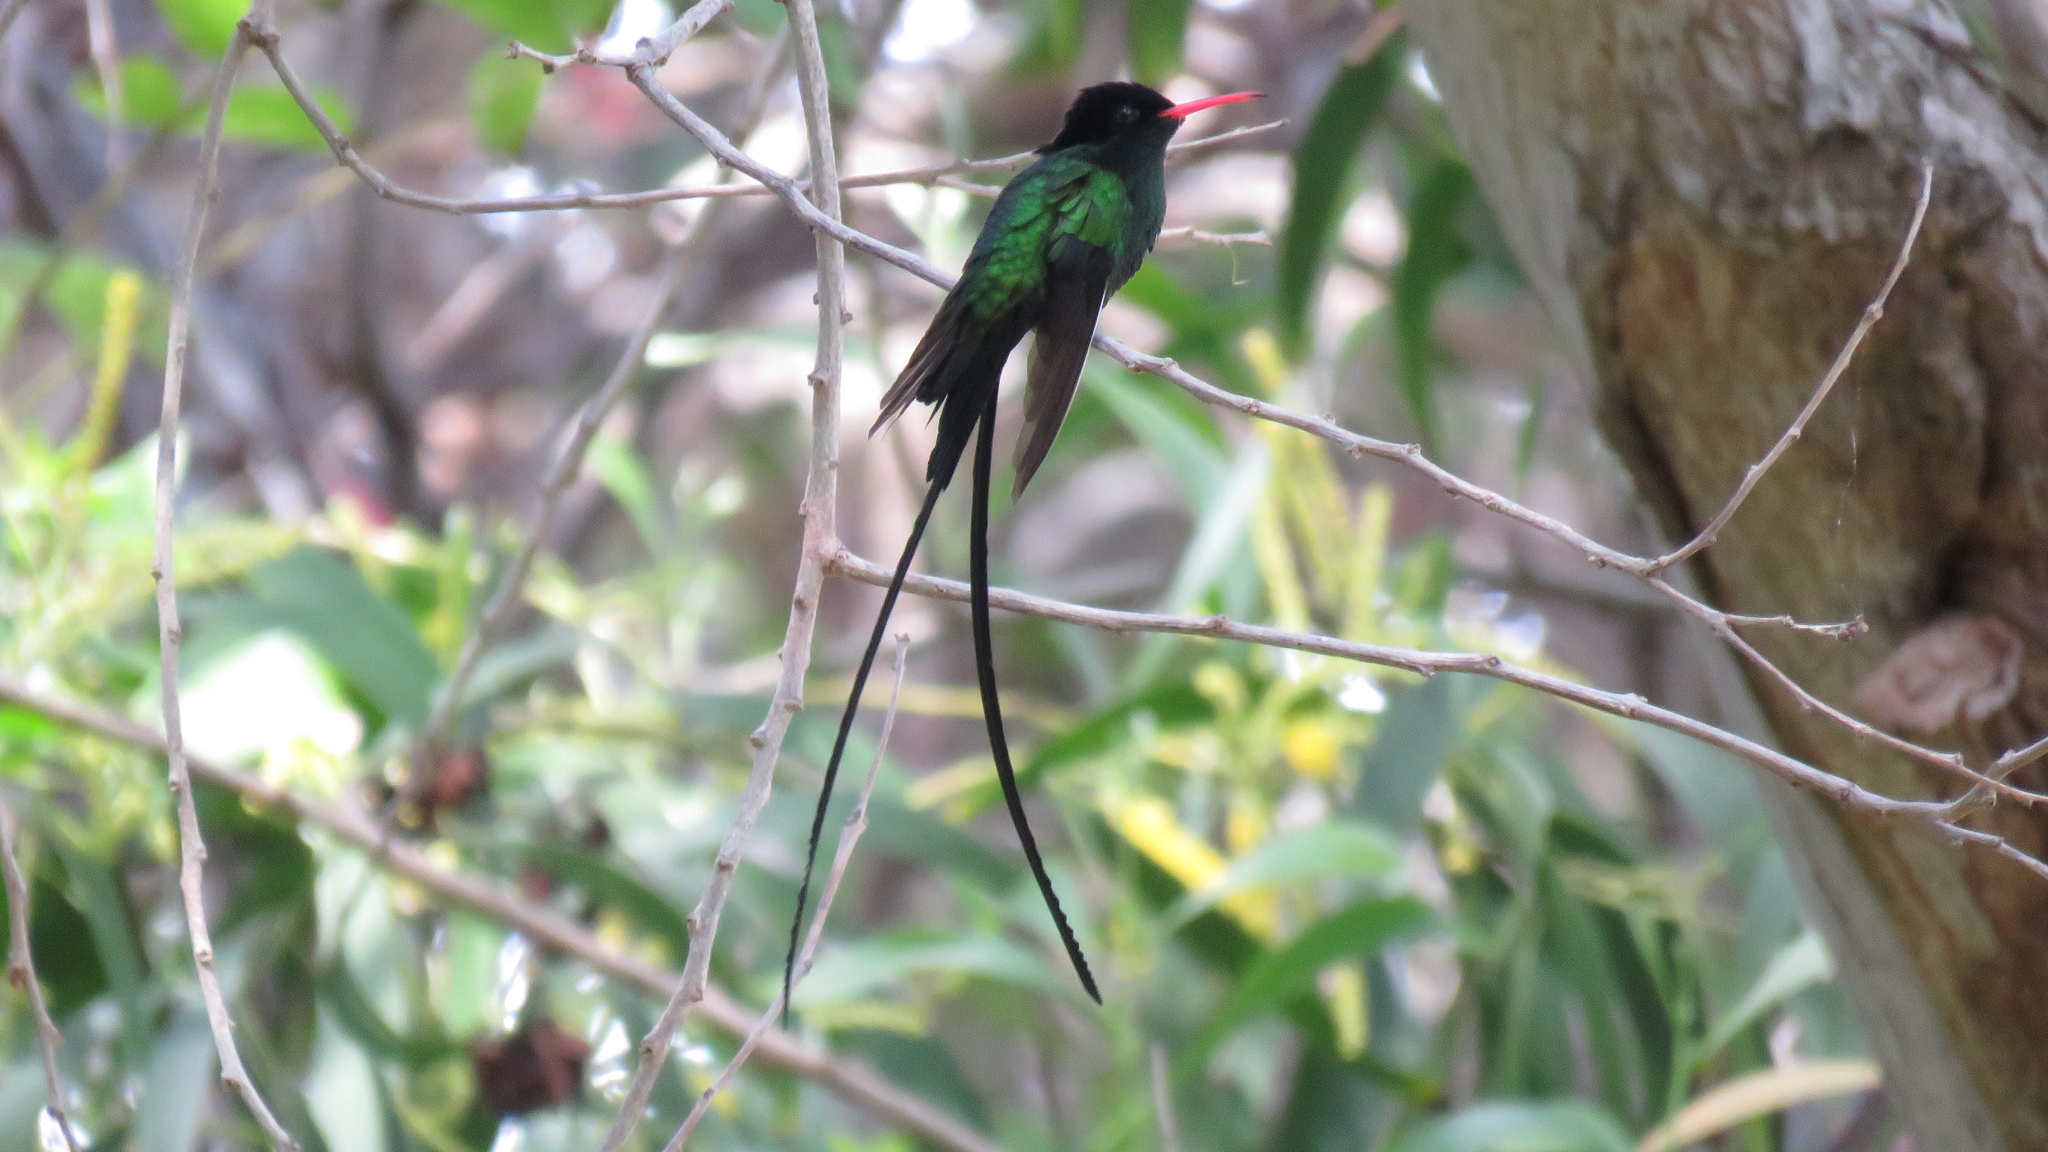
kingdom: Animalia
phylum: Chordata
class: Aves
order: Apodiformes
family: Trochilidae
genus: Trochilus
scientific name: Trochilus polytmus
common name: Red-billed streamertail
